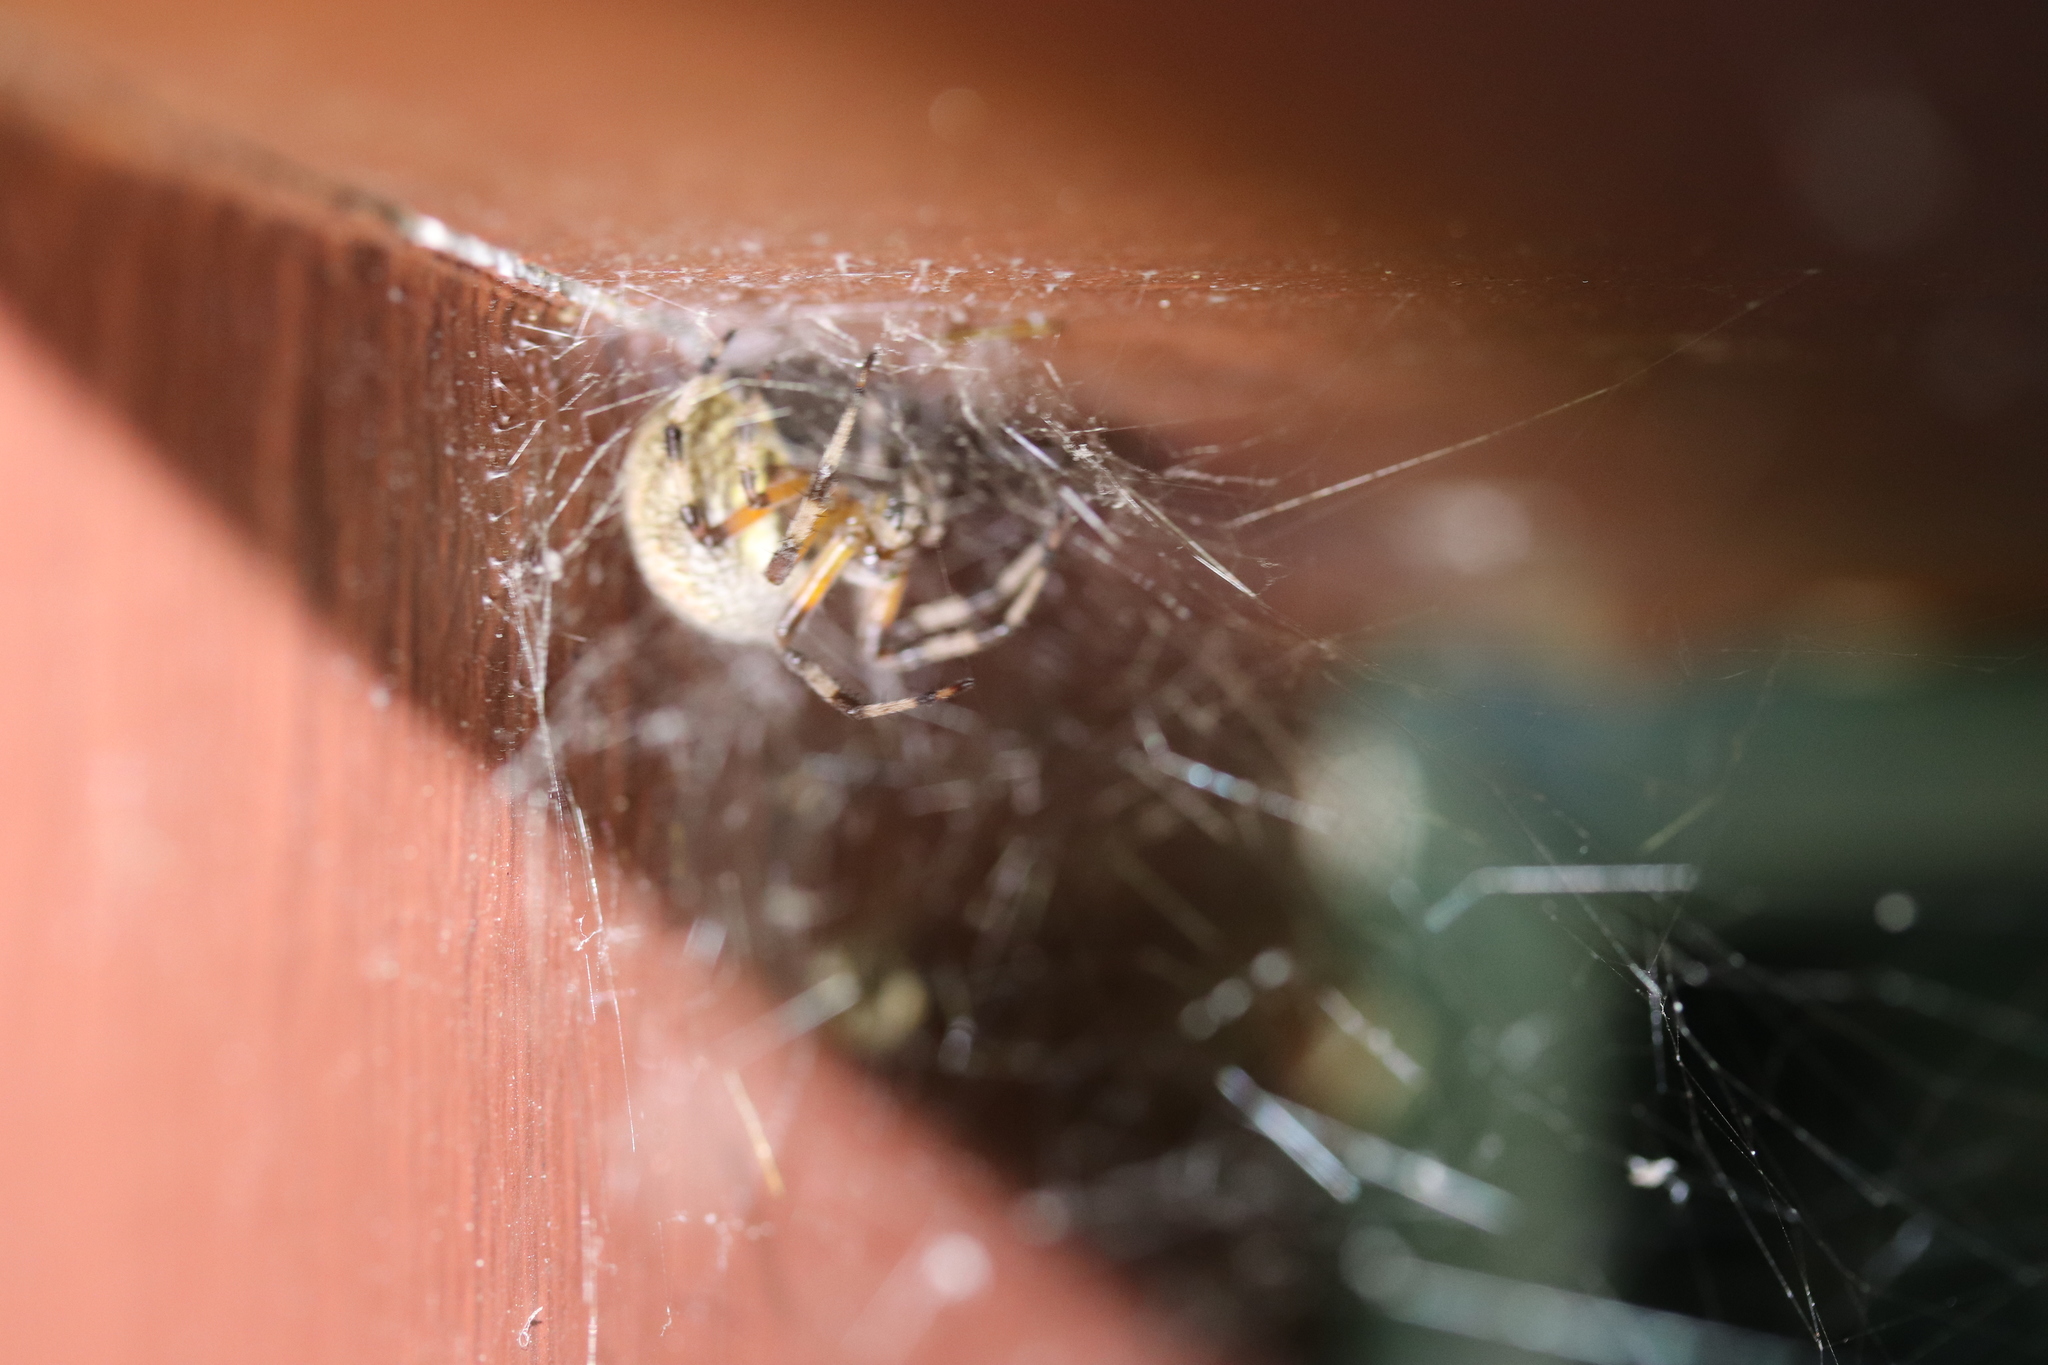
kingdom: Animalia
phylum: Arthropoda
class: Arachnida
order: Araneae
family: Araneidae
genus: Araneus
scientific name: Araneus marmoreus
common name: Marbled orbweaver
